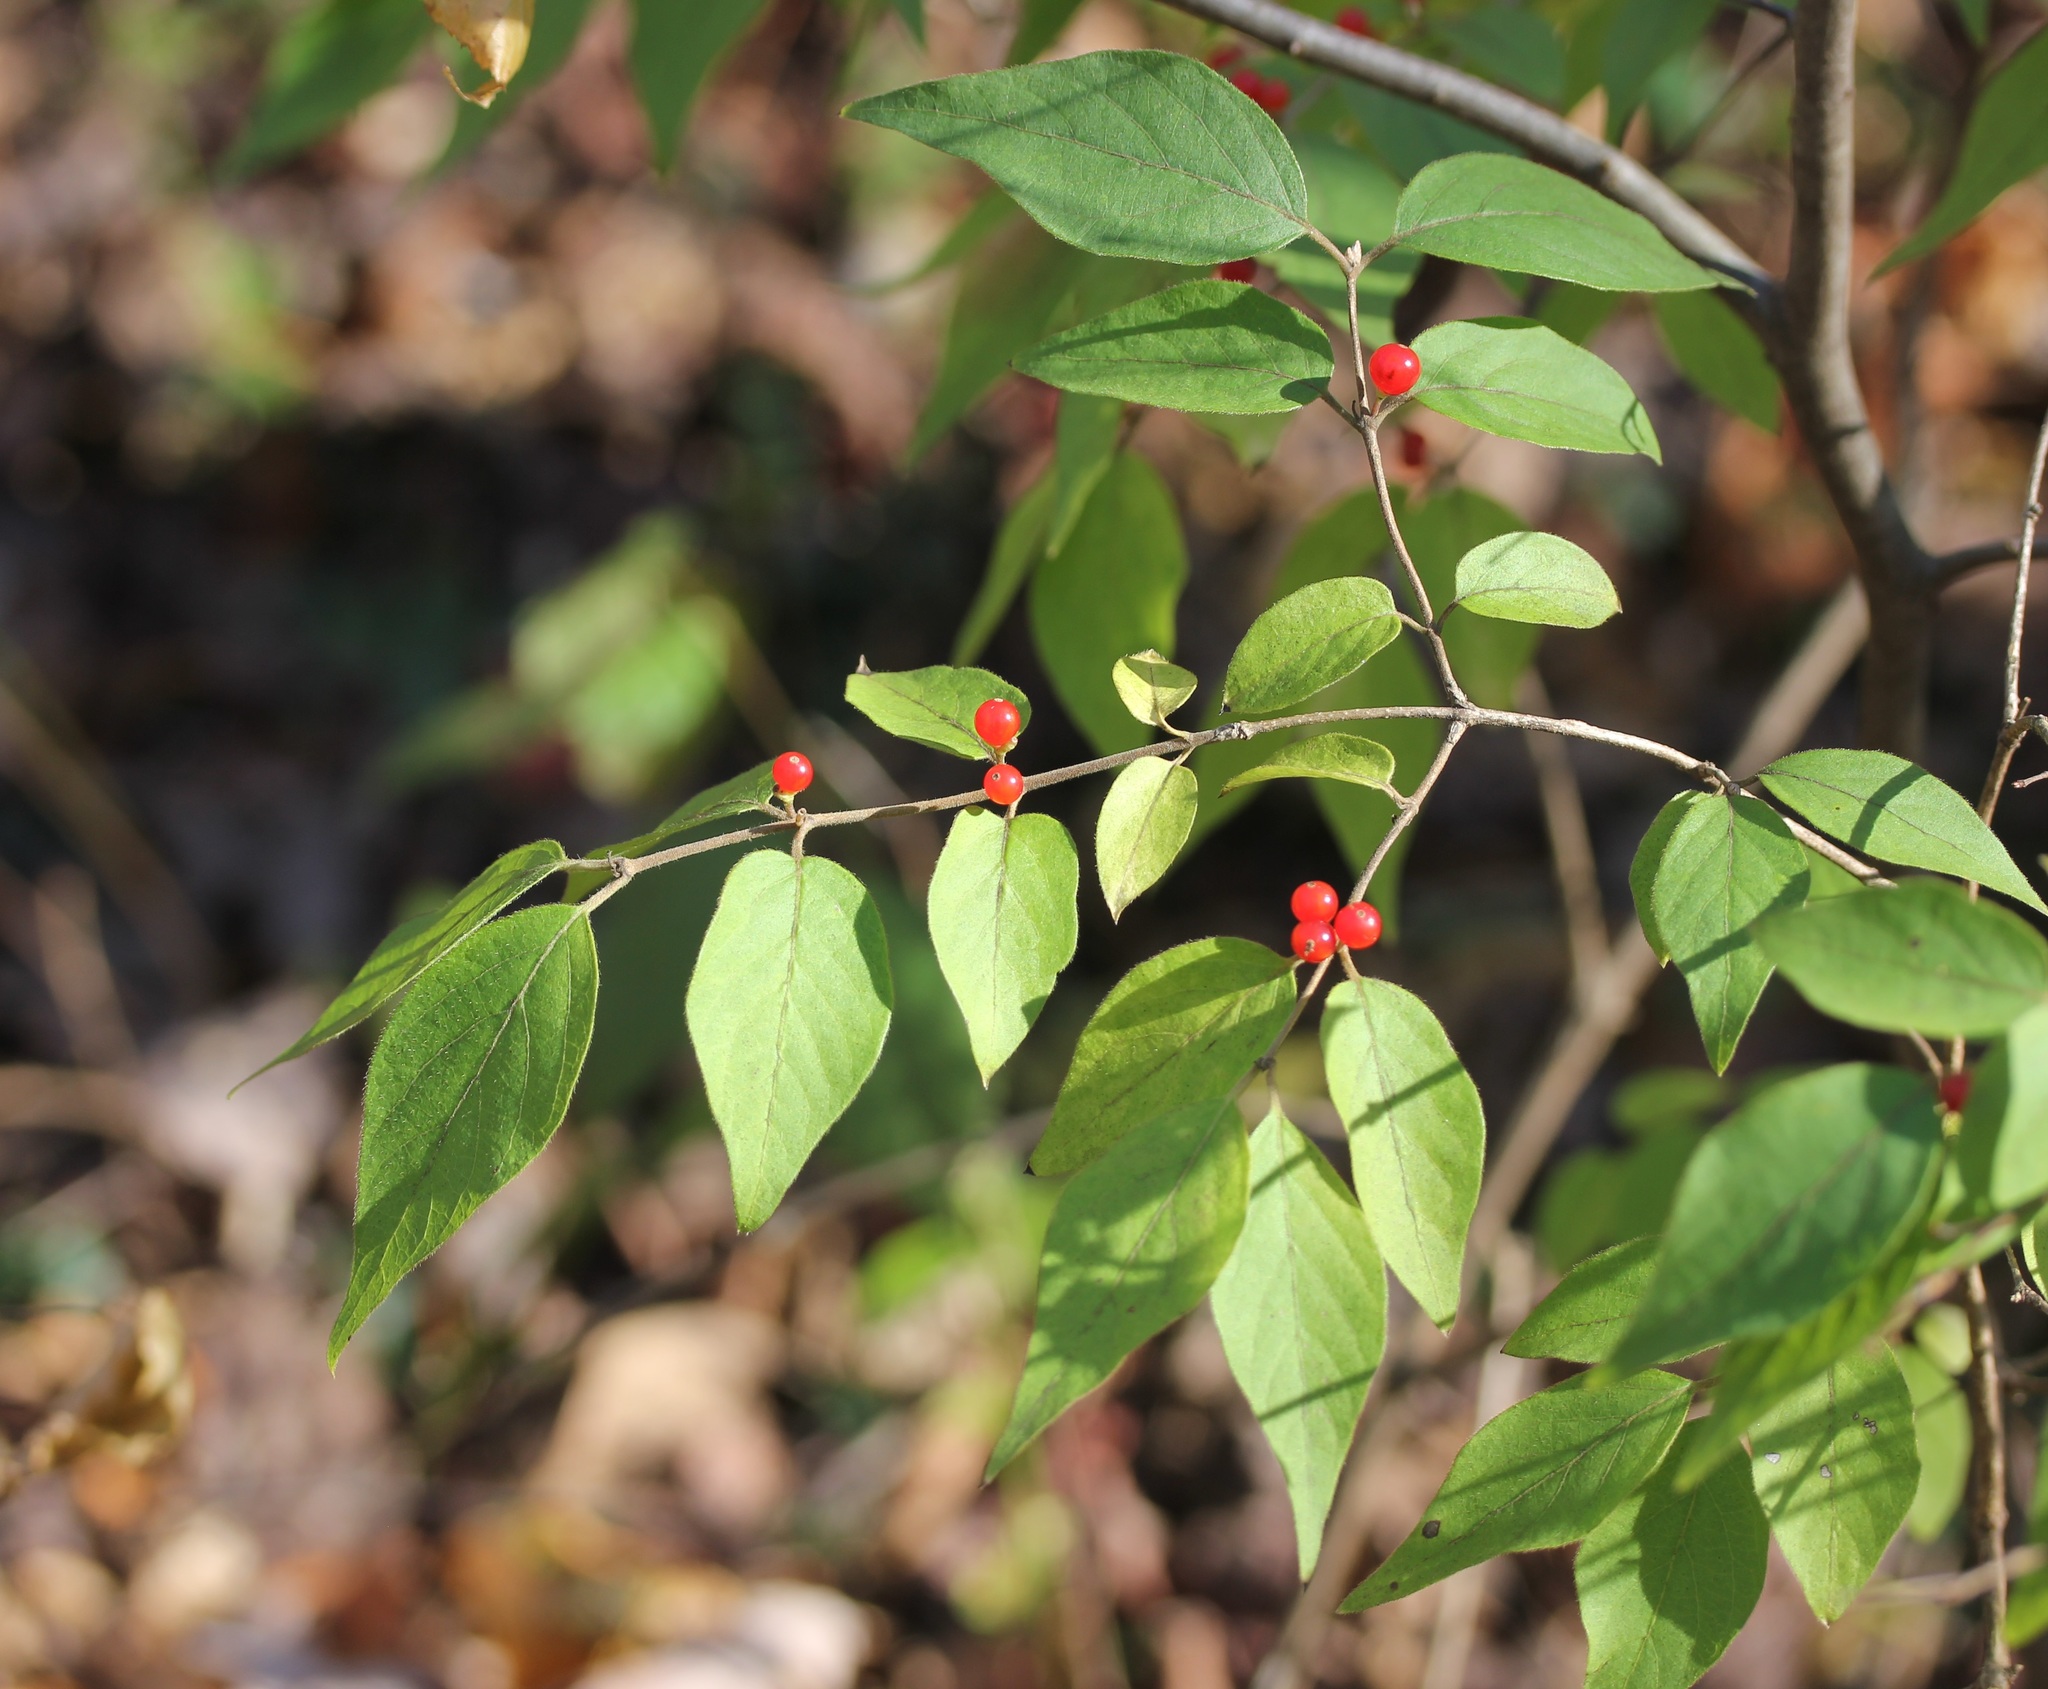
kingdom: Plantae
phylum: Tracheophyta
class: Magnoliopsida
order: Dipsacales
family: Caprifoliaceae
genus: Lonicera
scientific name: Lonicera maackii
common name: Amur honeysuckle
